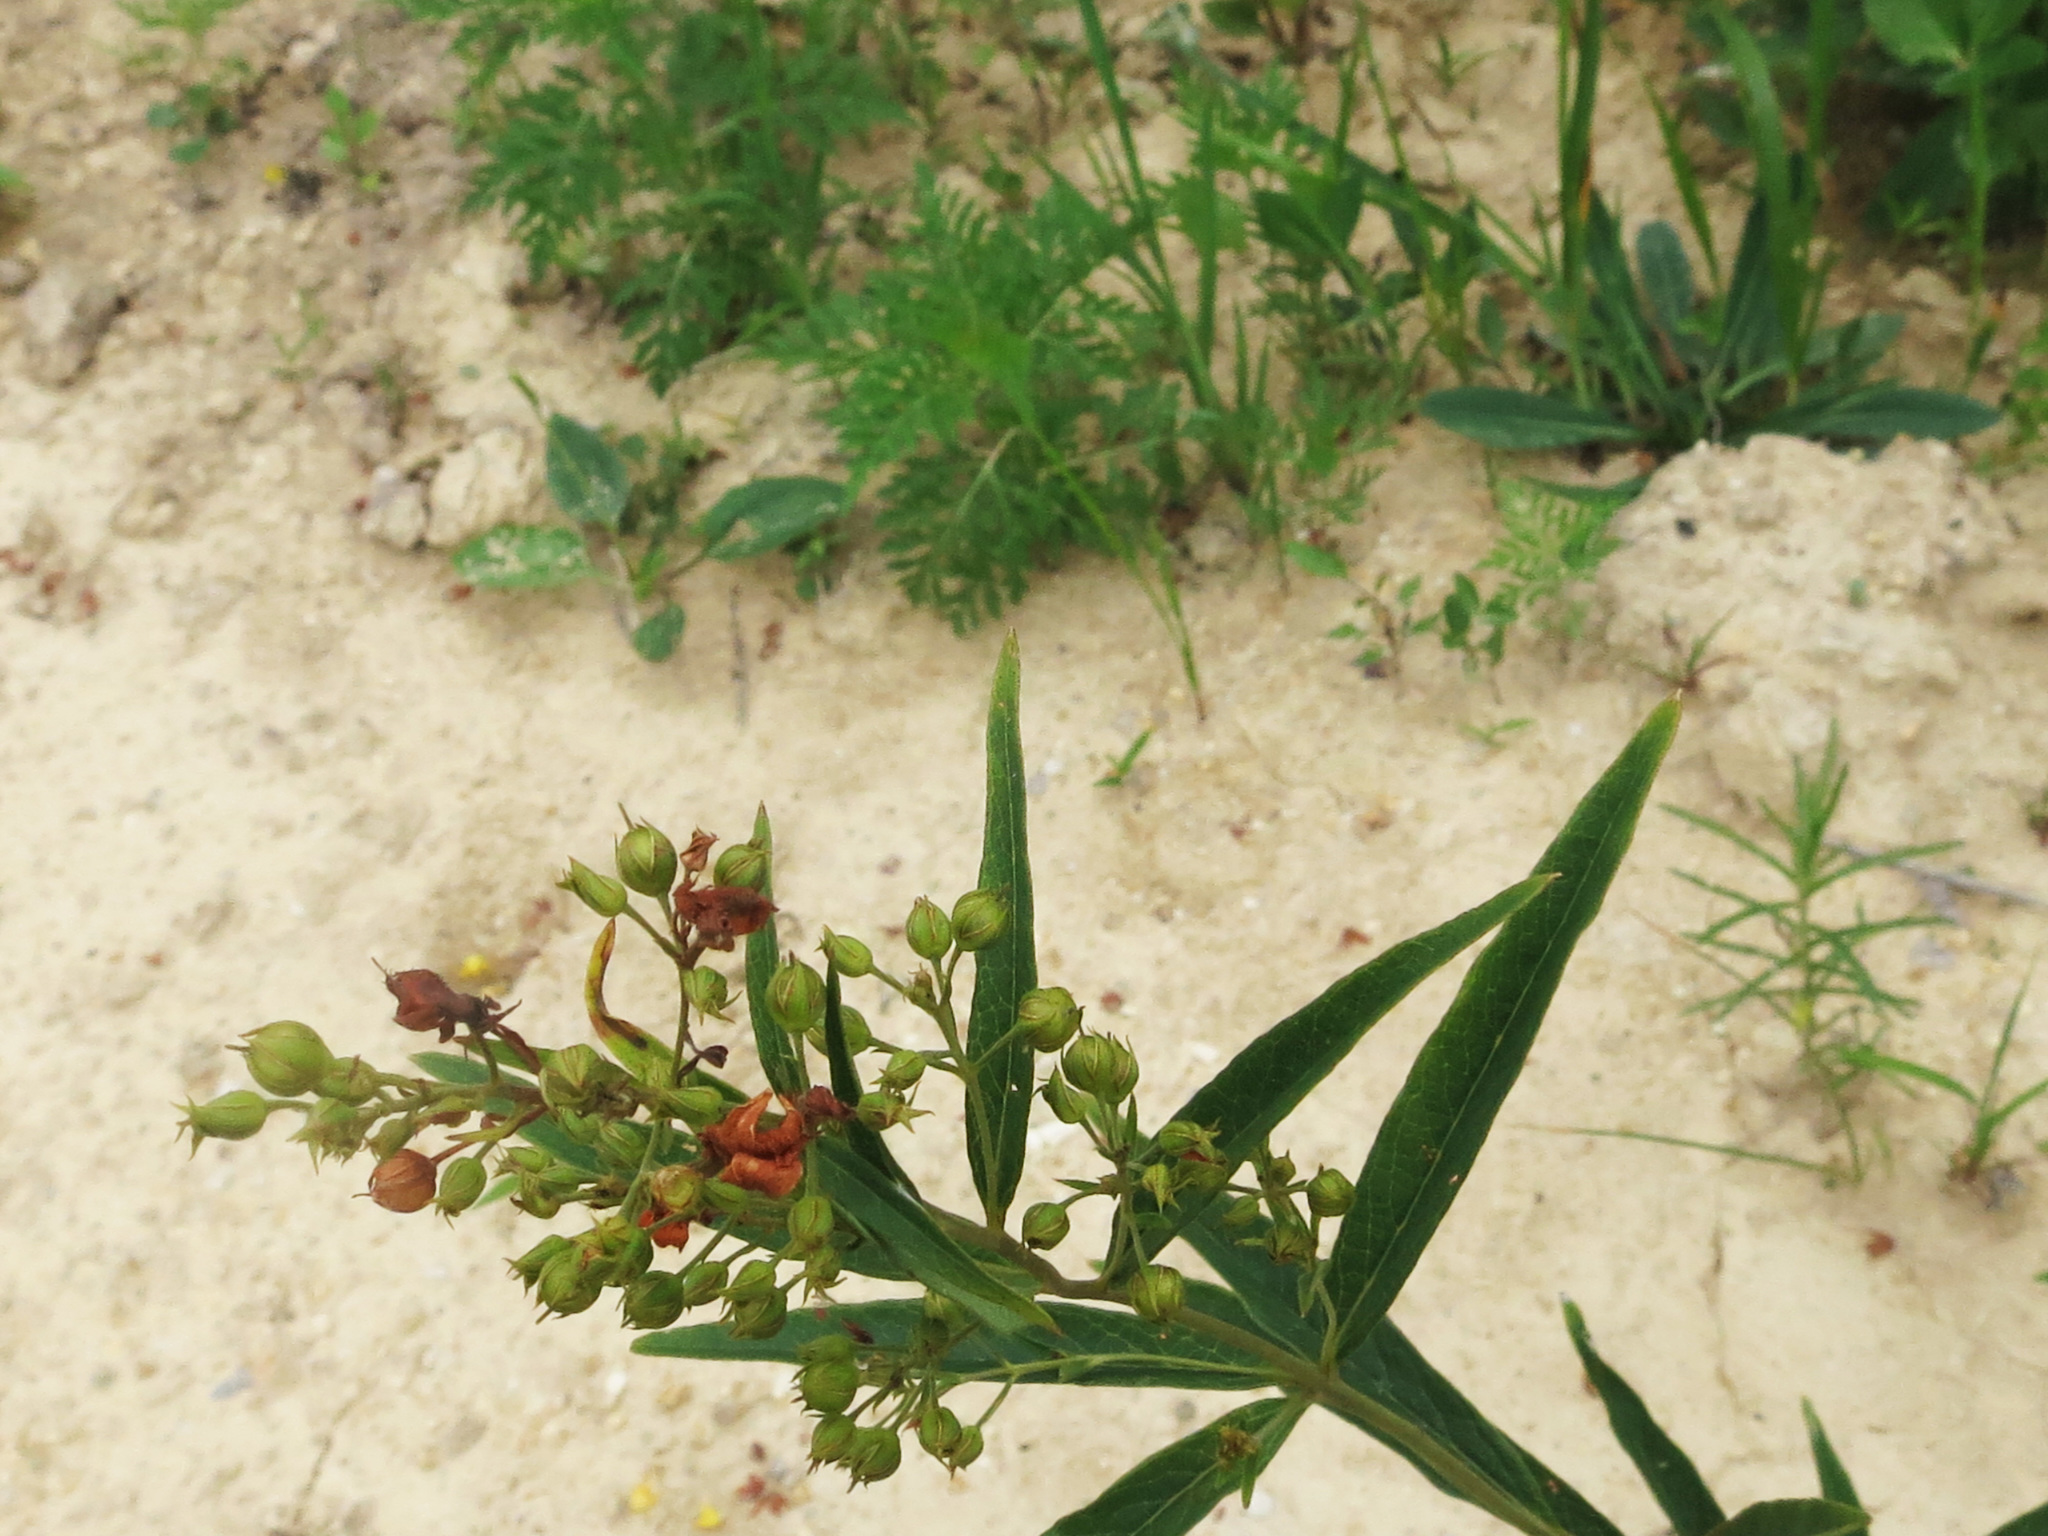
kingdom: Plantae
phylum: Tracheophyta
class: Magnoliopsida
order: Ericales
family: Primulaceae
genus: Lysimachia
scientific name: Lysimachia davurica
